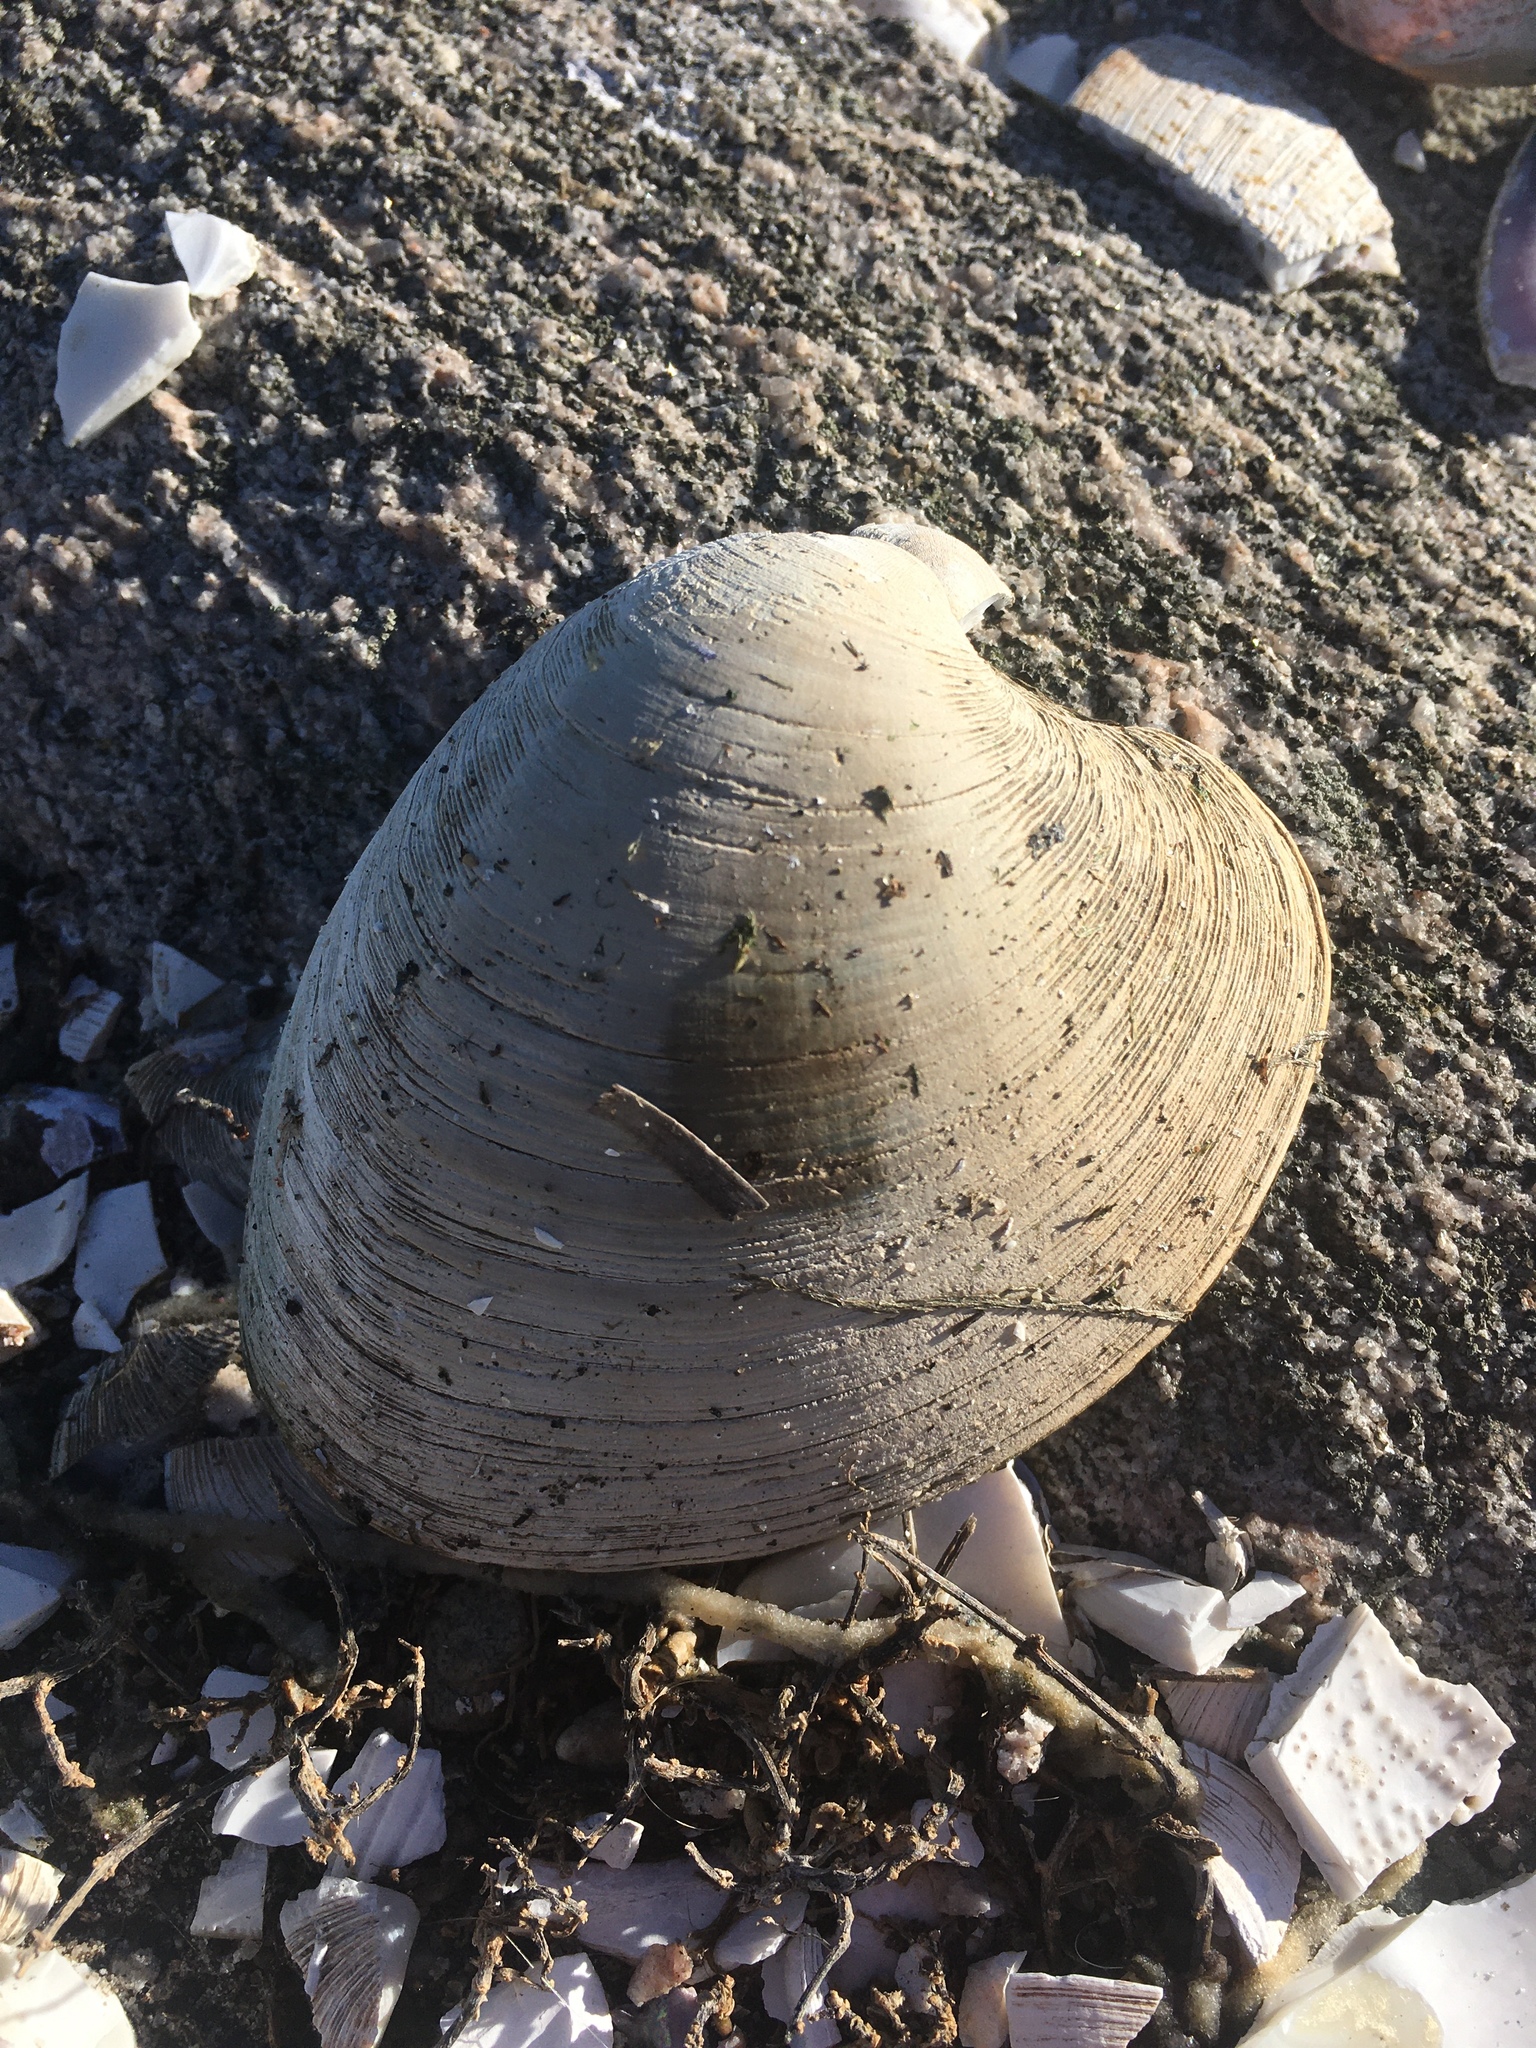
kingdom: Animalia
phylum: Mollusca
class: Bivalvia
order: Venerida
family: Veneridae
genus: Mercenaria
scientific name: Mercenaria mercenaria
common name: American hard-shelled clam
